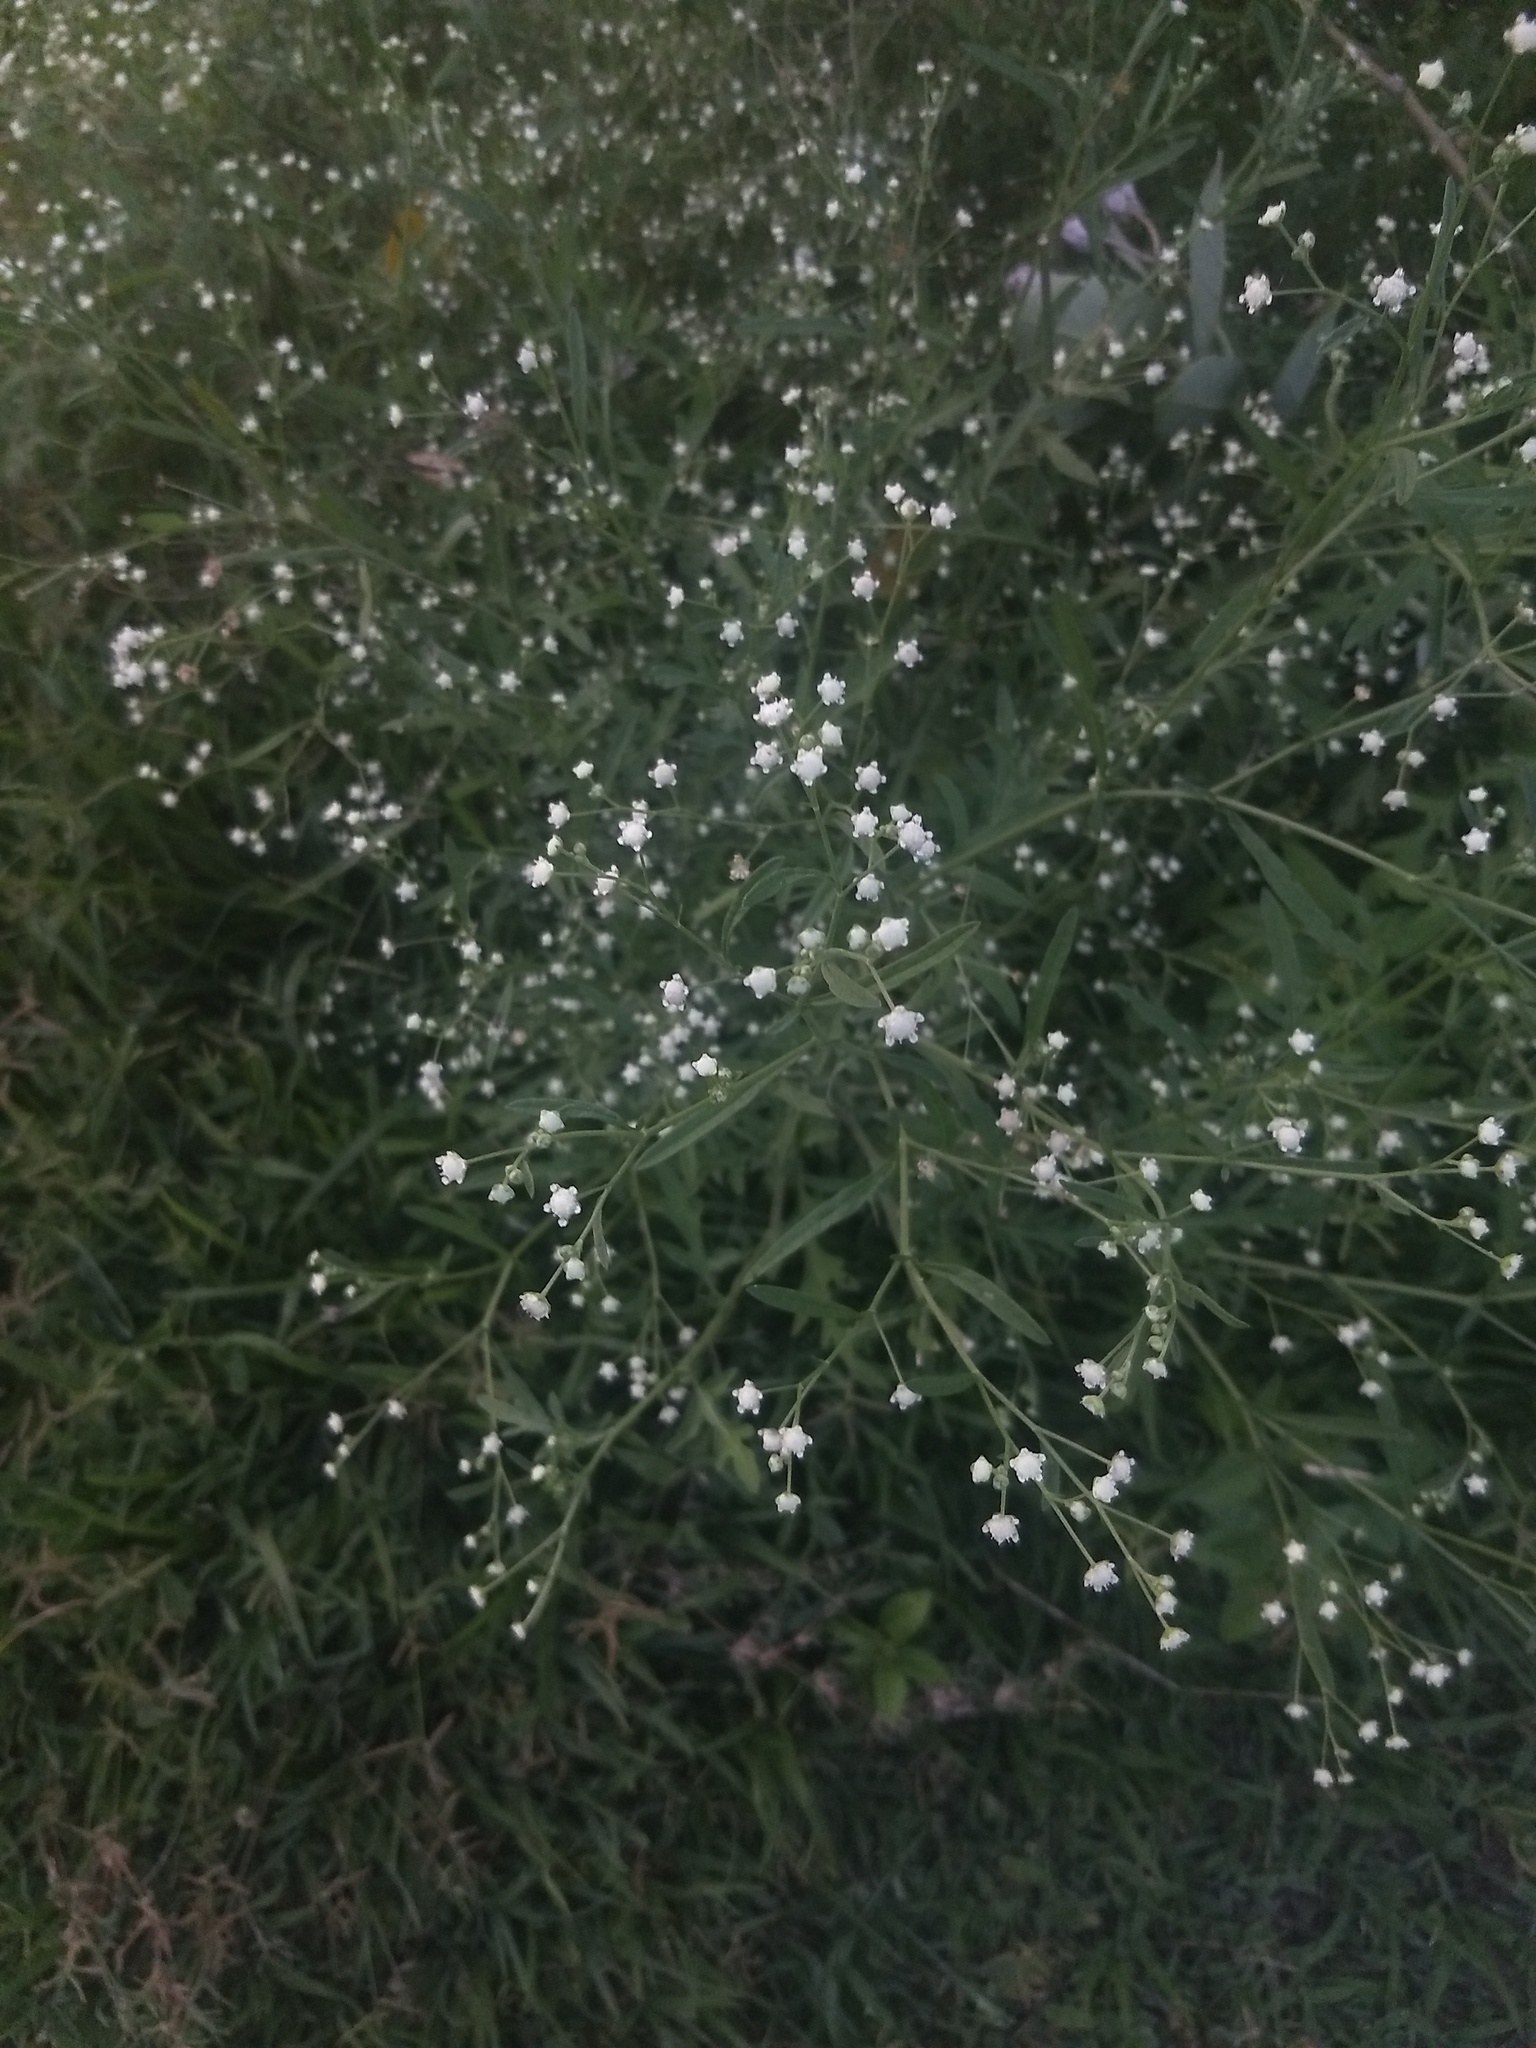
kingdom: Plantae
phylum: Tracheophyta
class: Magnoliopsida
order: Asterales
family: Asteraceae
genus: Parthenium
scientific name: Parthenium hysterophorus
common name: Santa maria feverfew
